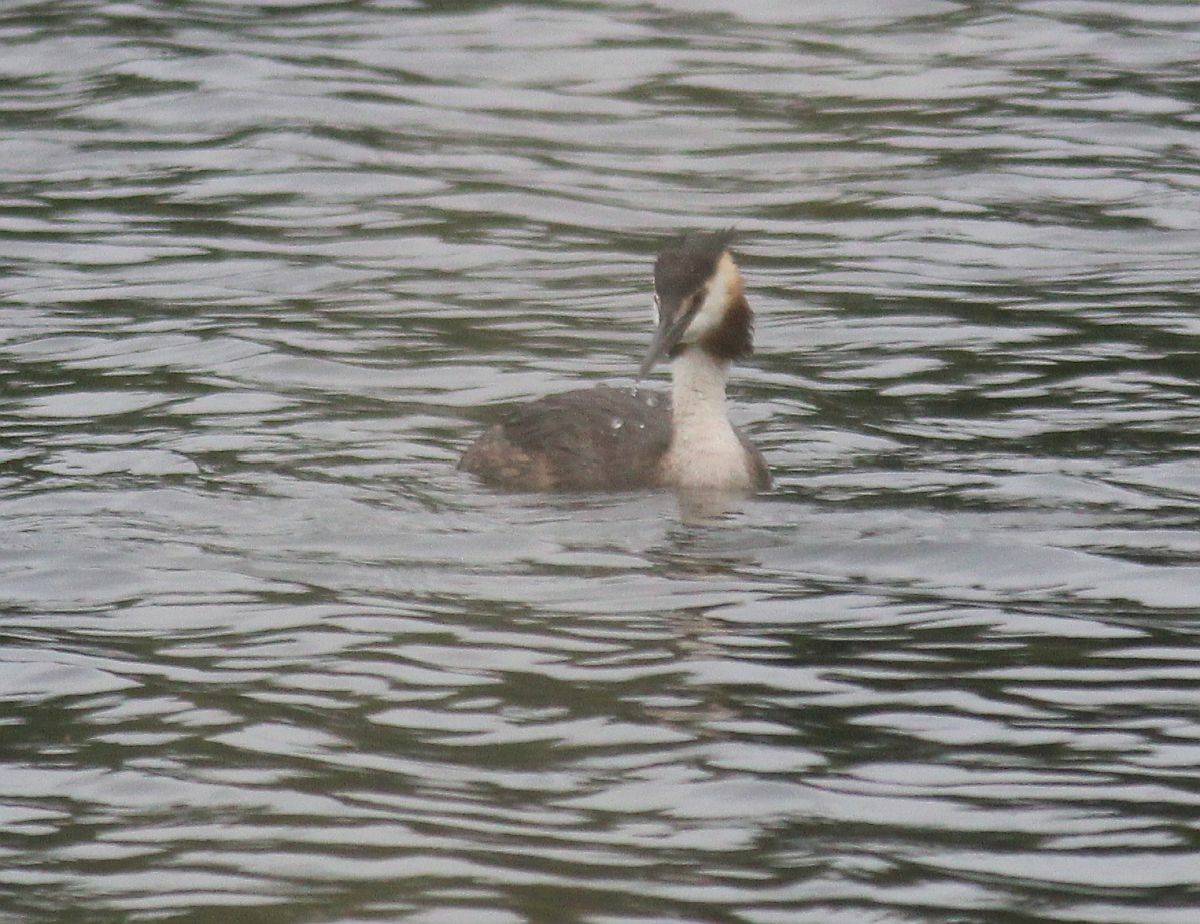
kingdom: Animalia
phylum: Chordata
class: Aves
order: Podicipediformes
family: Podicipedidae
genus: Podiceps
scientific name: Podiceps cristatus
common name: Great crested grebe
